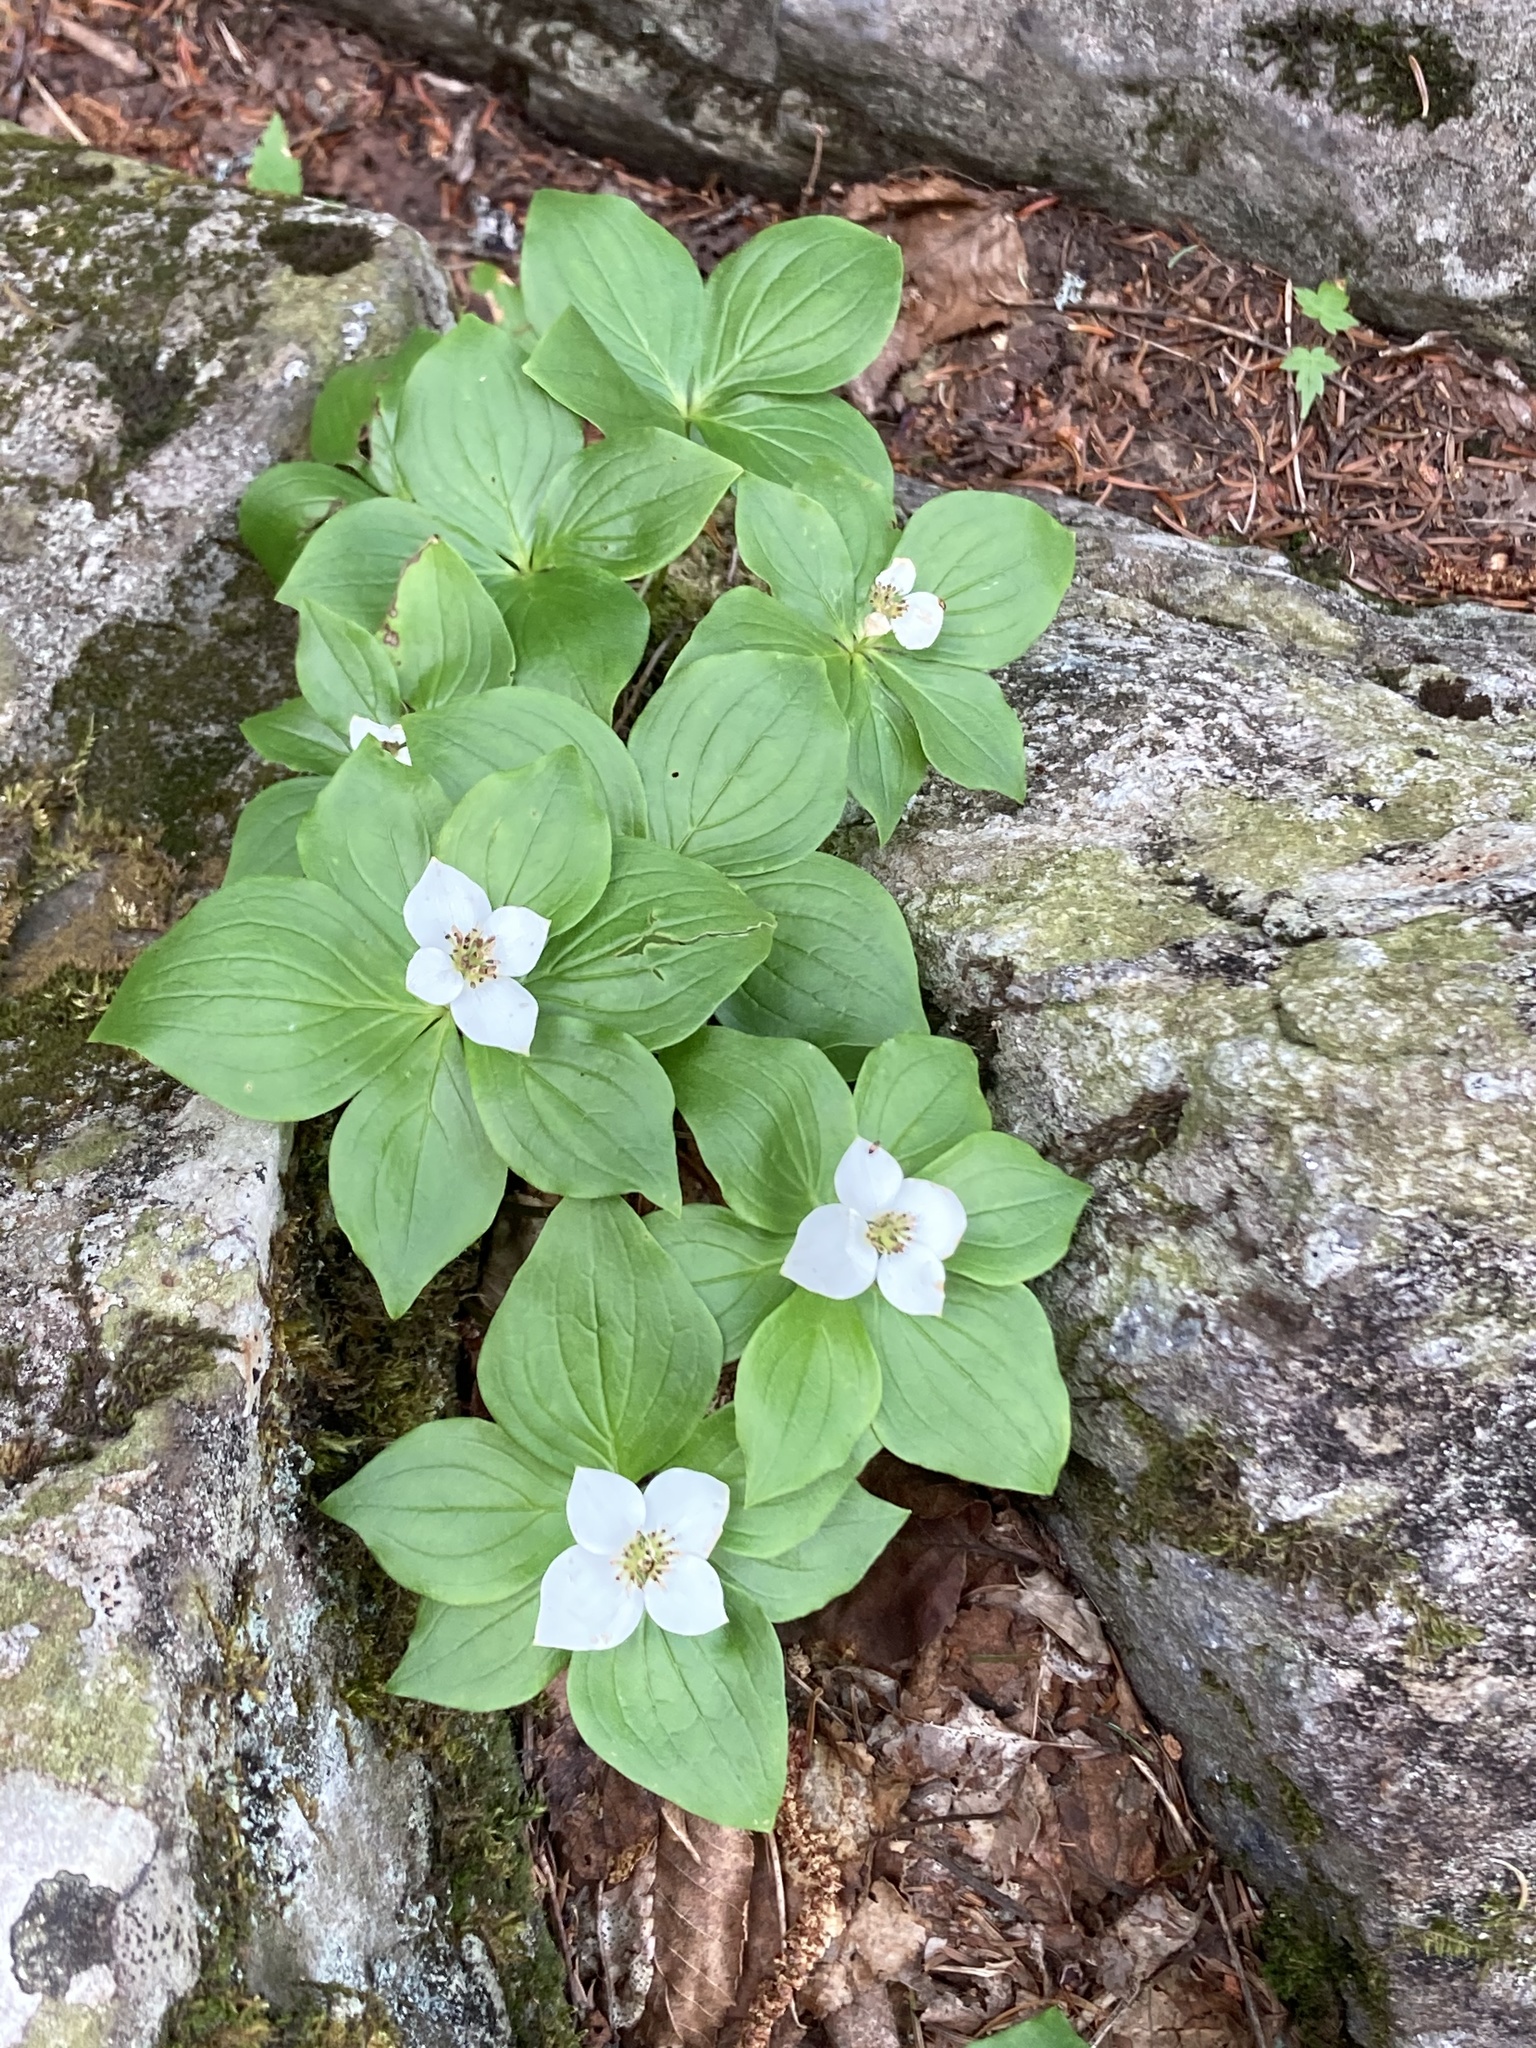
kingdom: Plantae
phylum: Tracheophyta
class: Magnoliopsida
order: Cornales
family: Cornaceae
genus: Cornus
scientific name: Cornus canadensis
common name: Creeping dogwood
